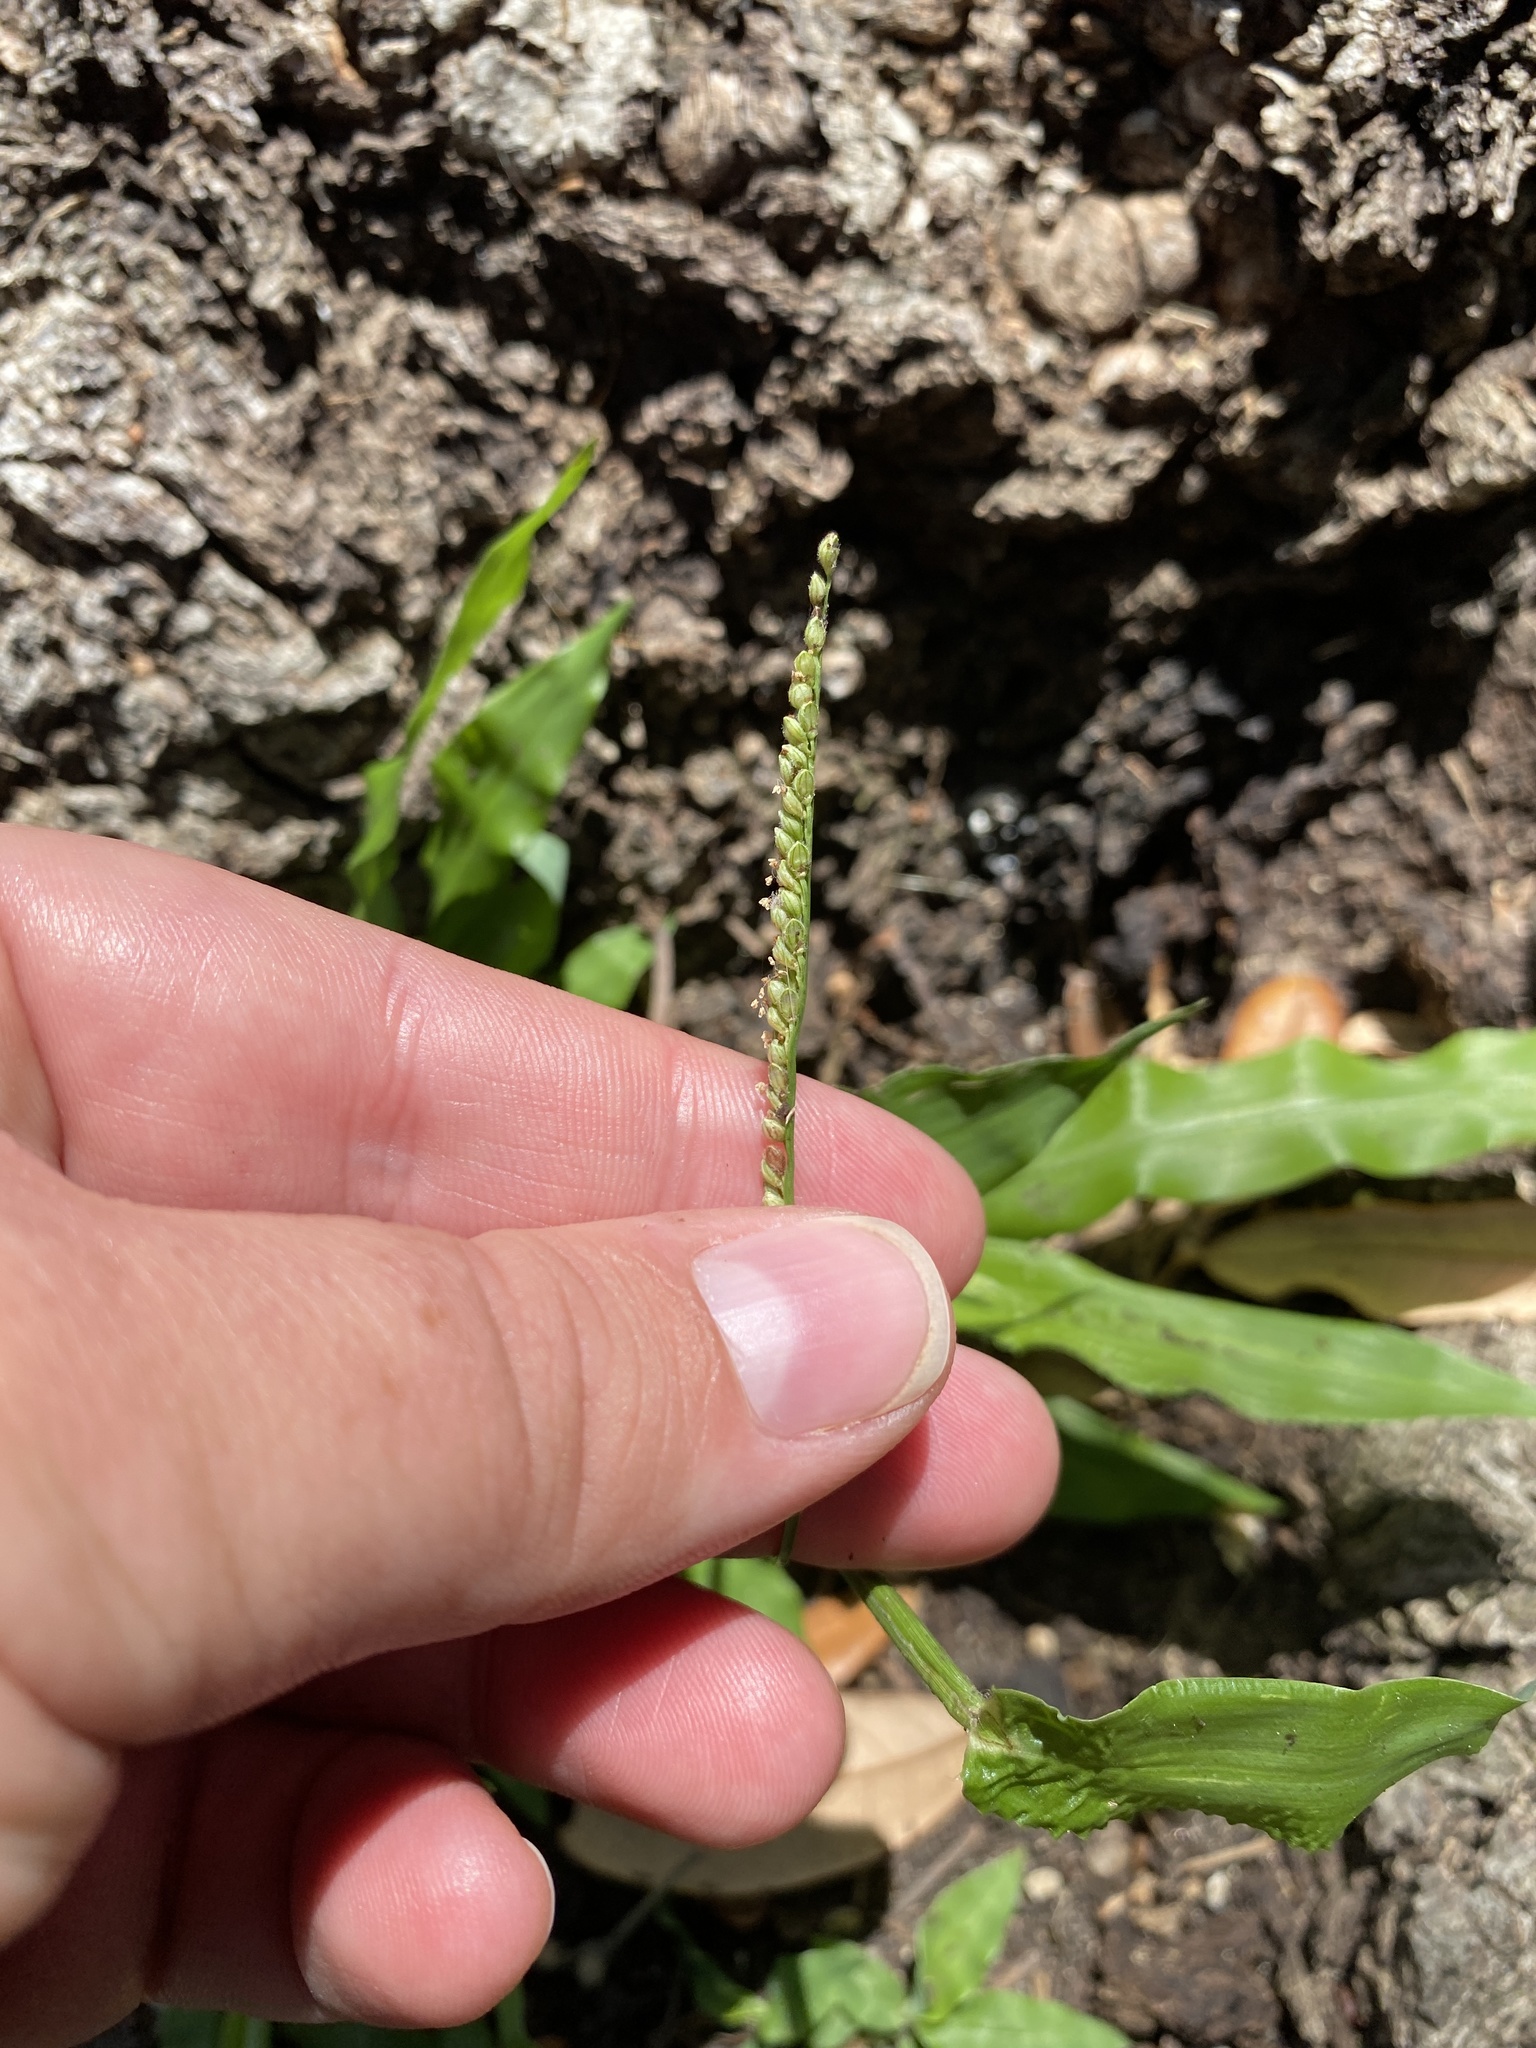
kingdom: Plantae
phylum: Tracheophyta
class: Liliopsida
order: Poales
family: Poaceae
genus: Paspalum
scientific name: Paspalum langei
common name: Rusty-seed paspalum
